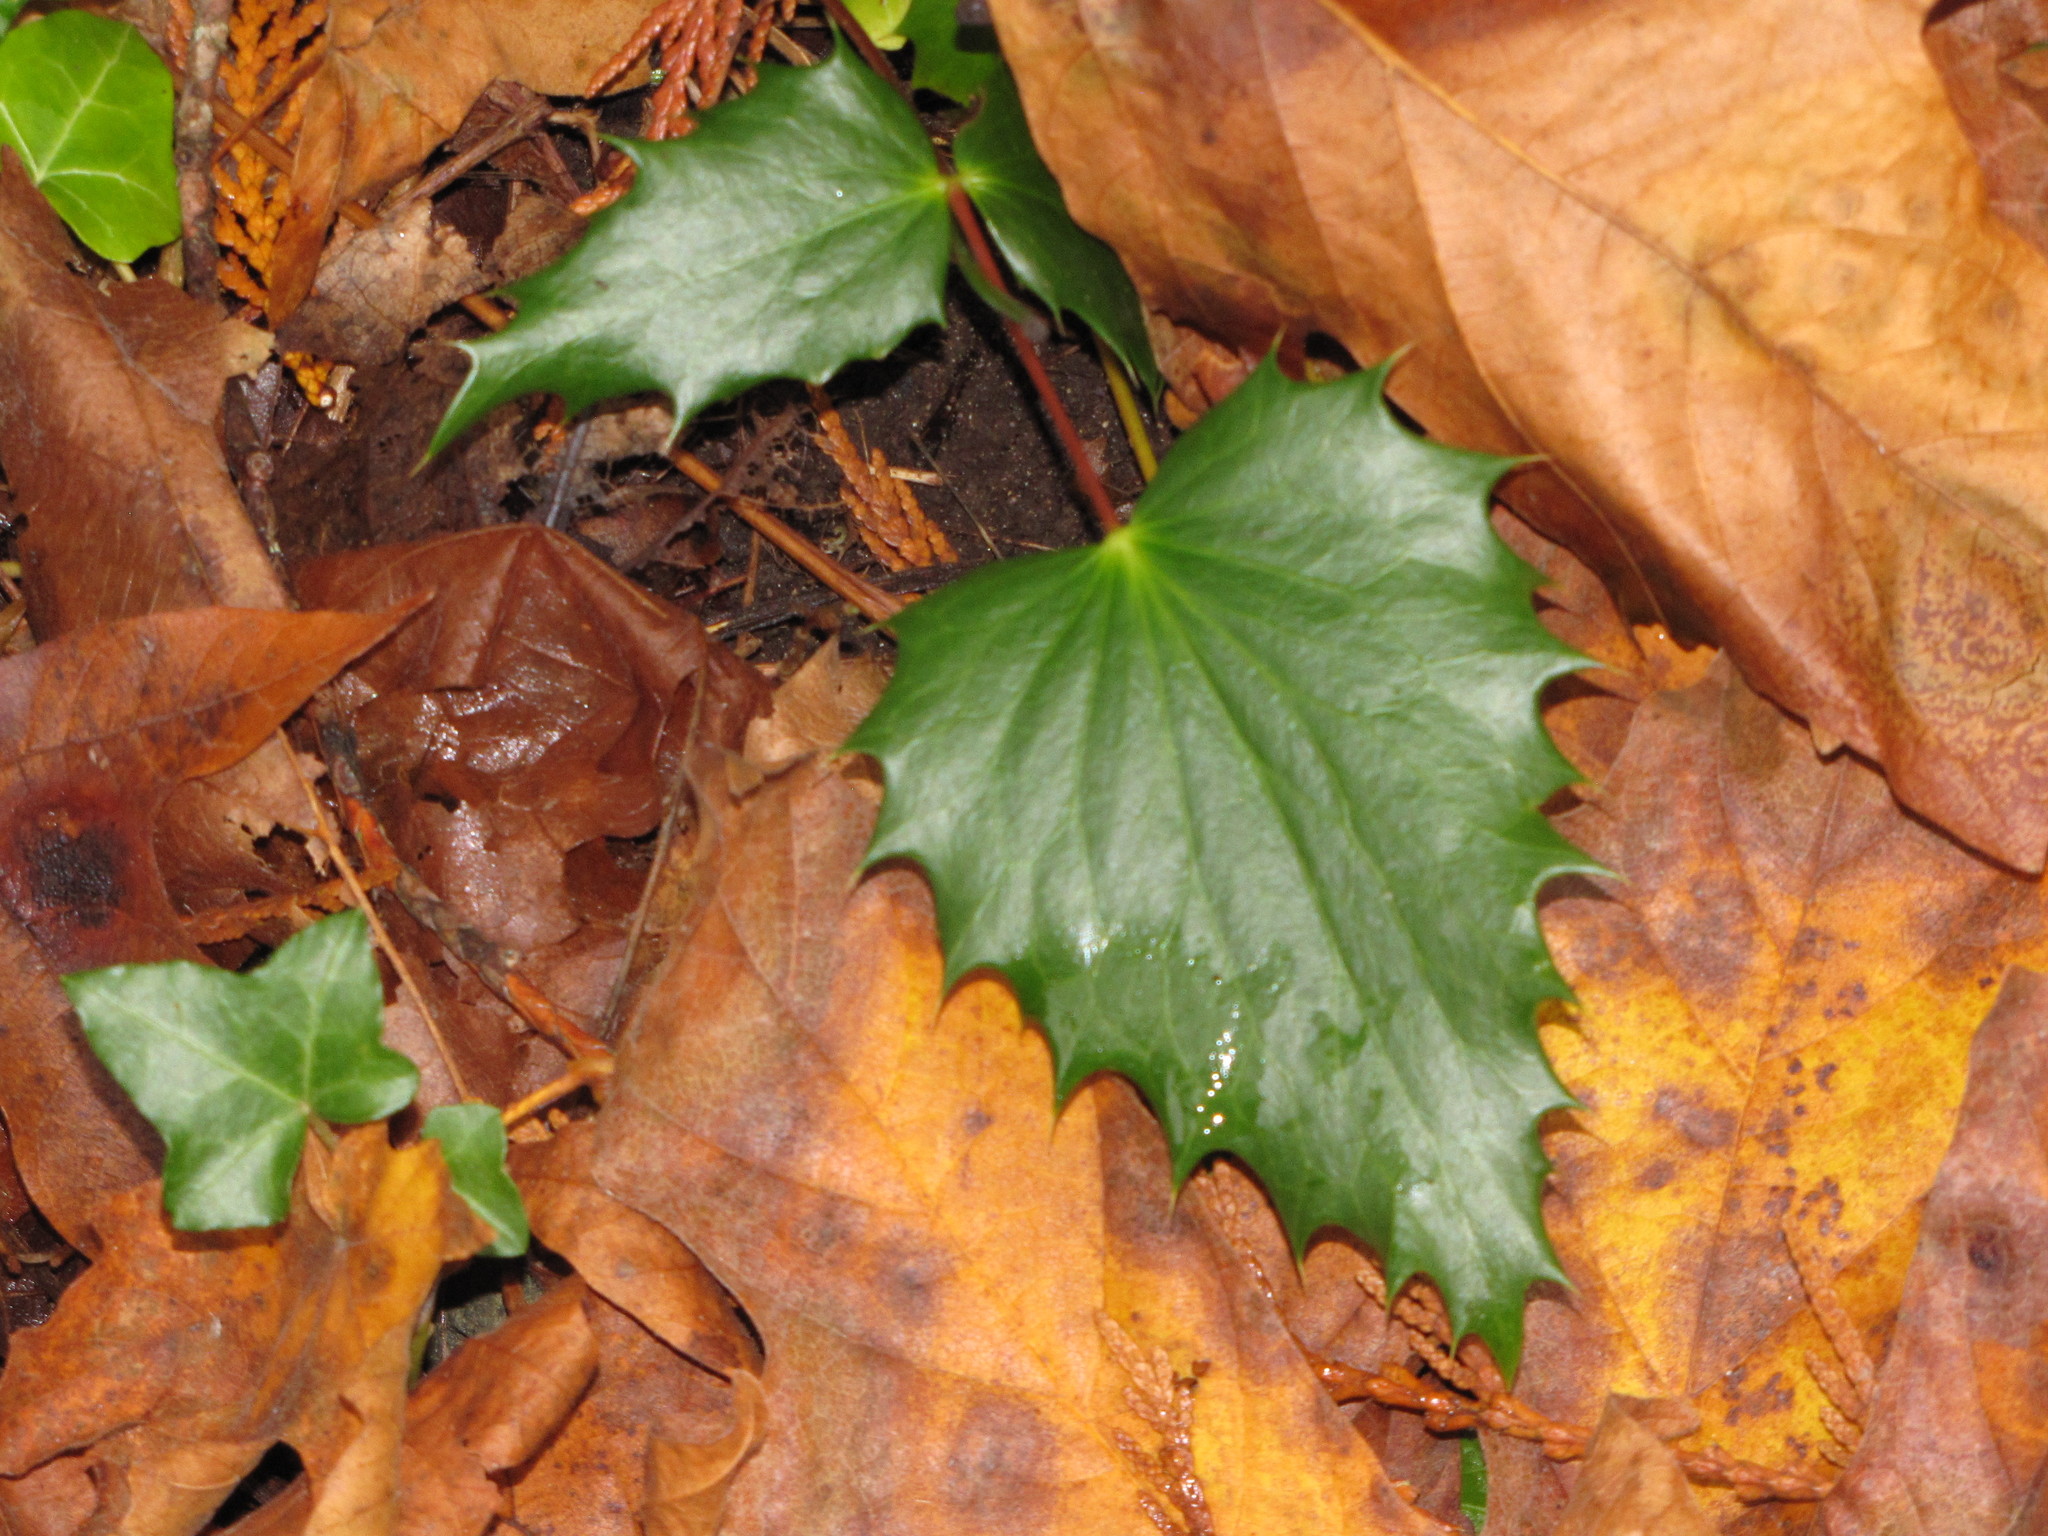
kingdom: Plantae
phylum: Tracheophyta
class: Magnoliopsida
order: Ranunculales
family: Berberidaceae
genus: Mahonia
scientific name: Mahonia nervosa
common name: Cascade oregon-grape
